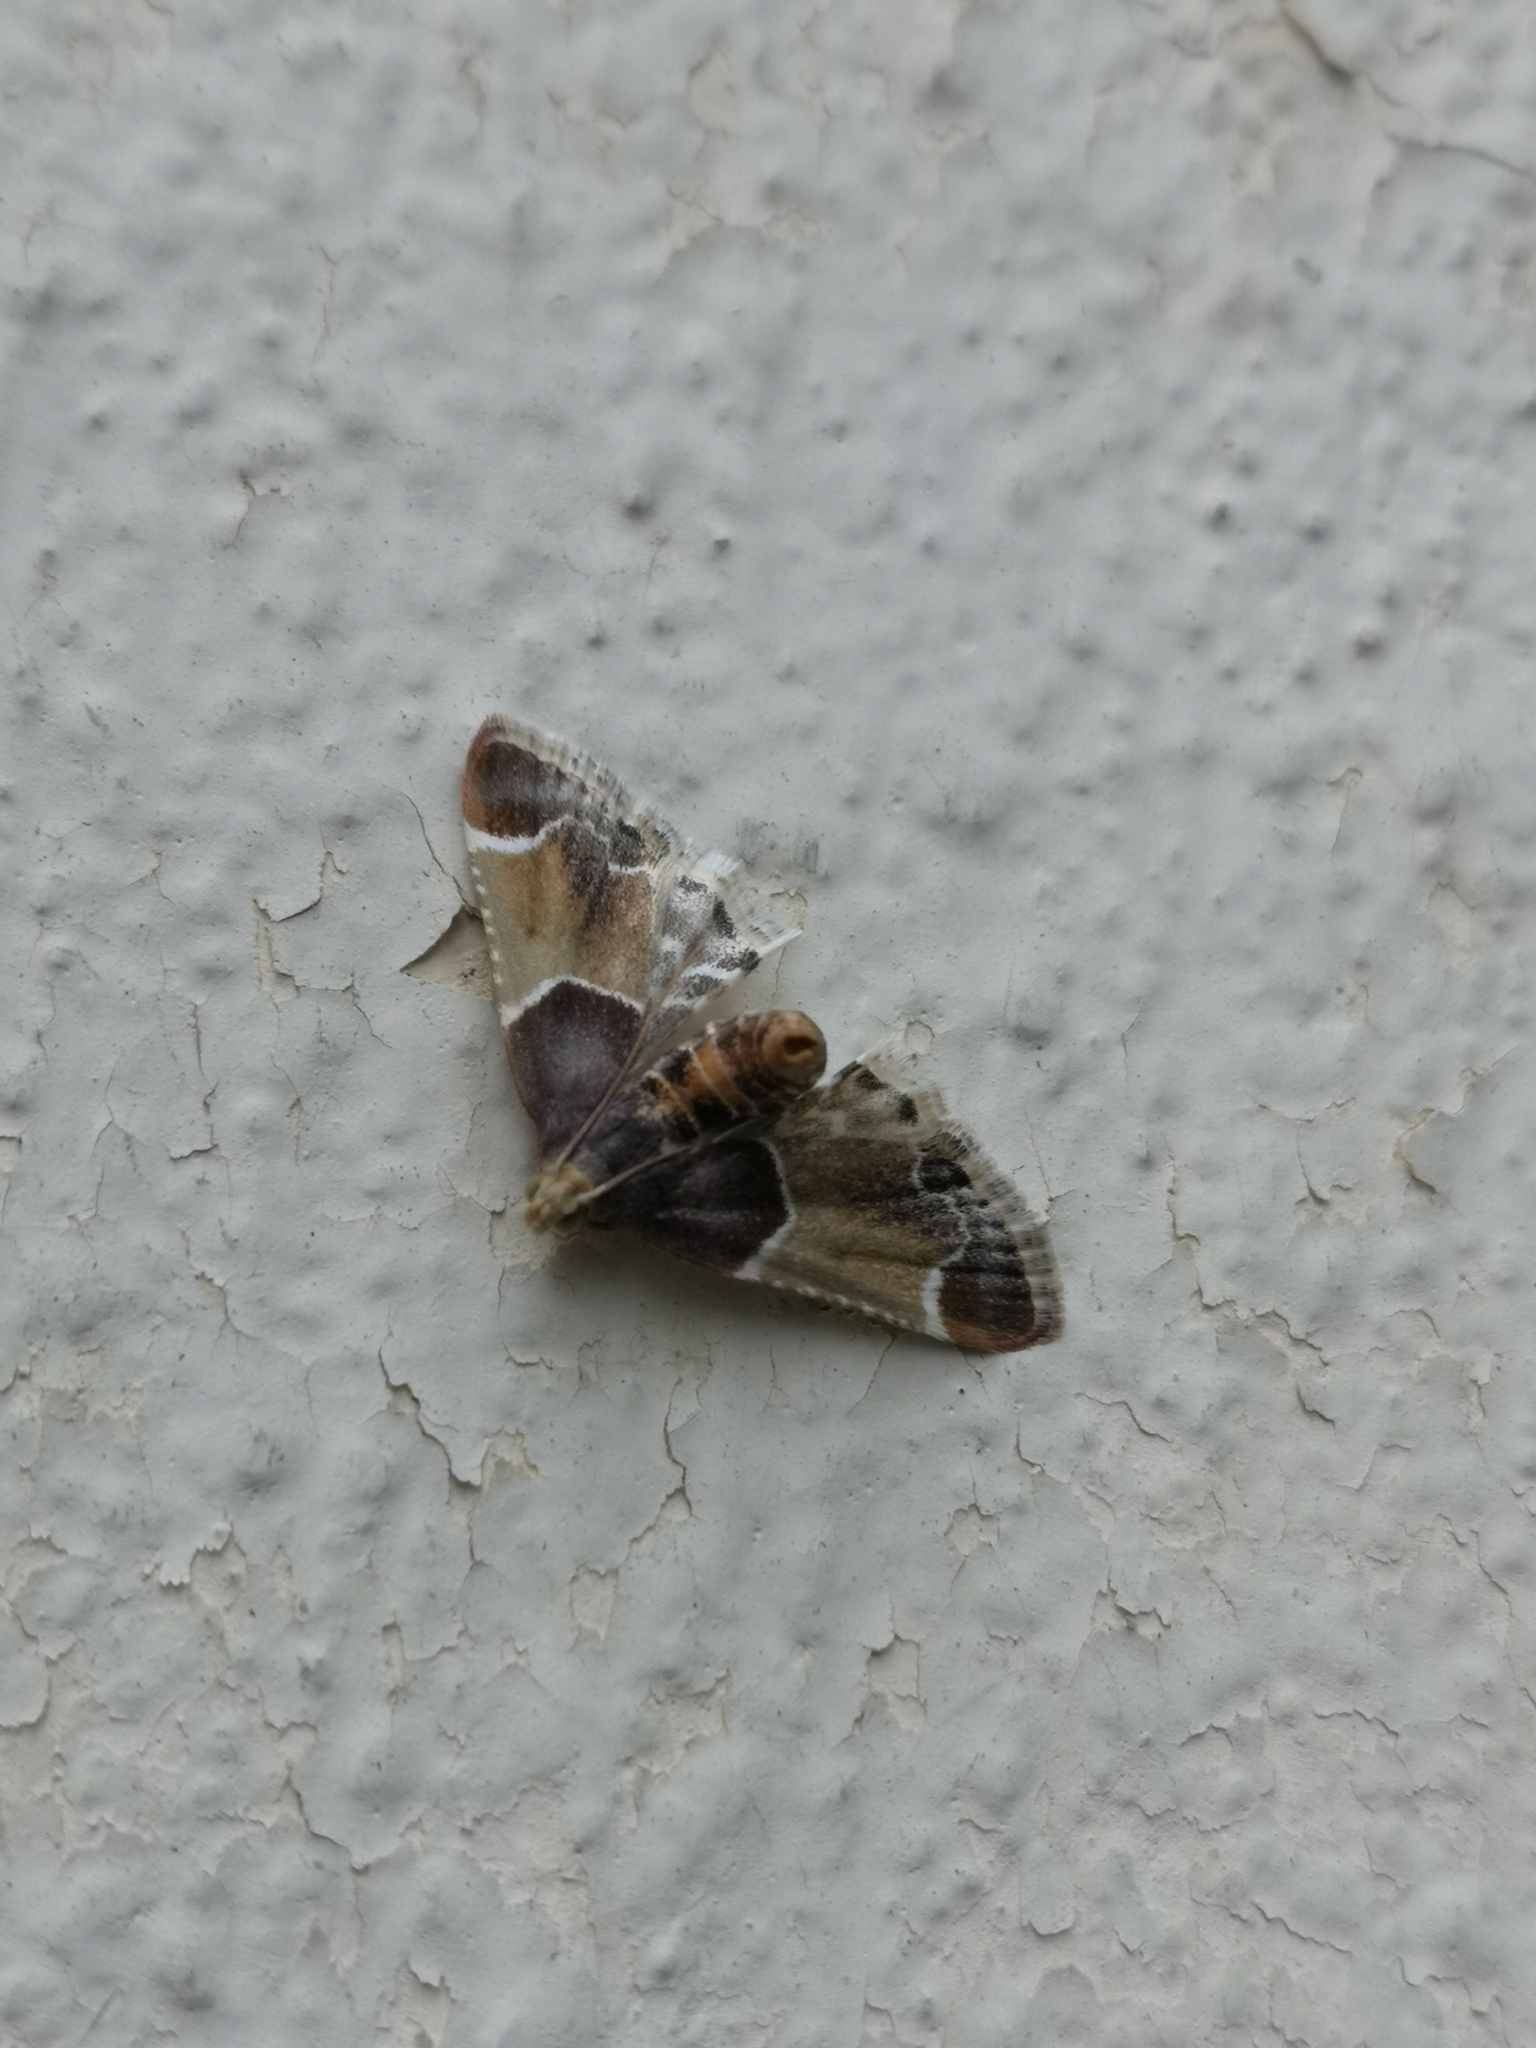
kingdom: Animalia
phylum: Arthropoda
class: Insecta
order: Lepidoptera
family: Pyralidae
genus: Pyralis
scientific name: Pyralis farinalis
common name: Meal moth
